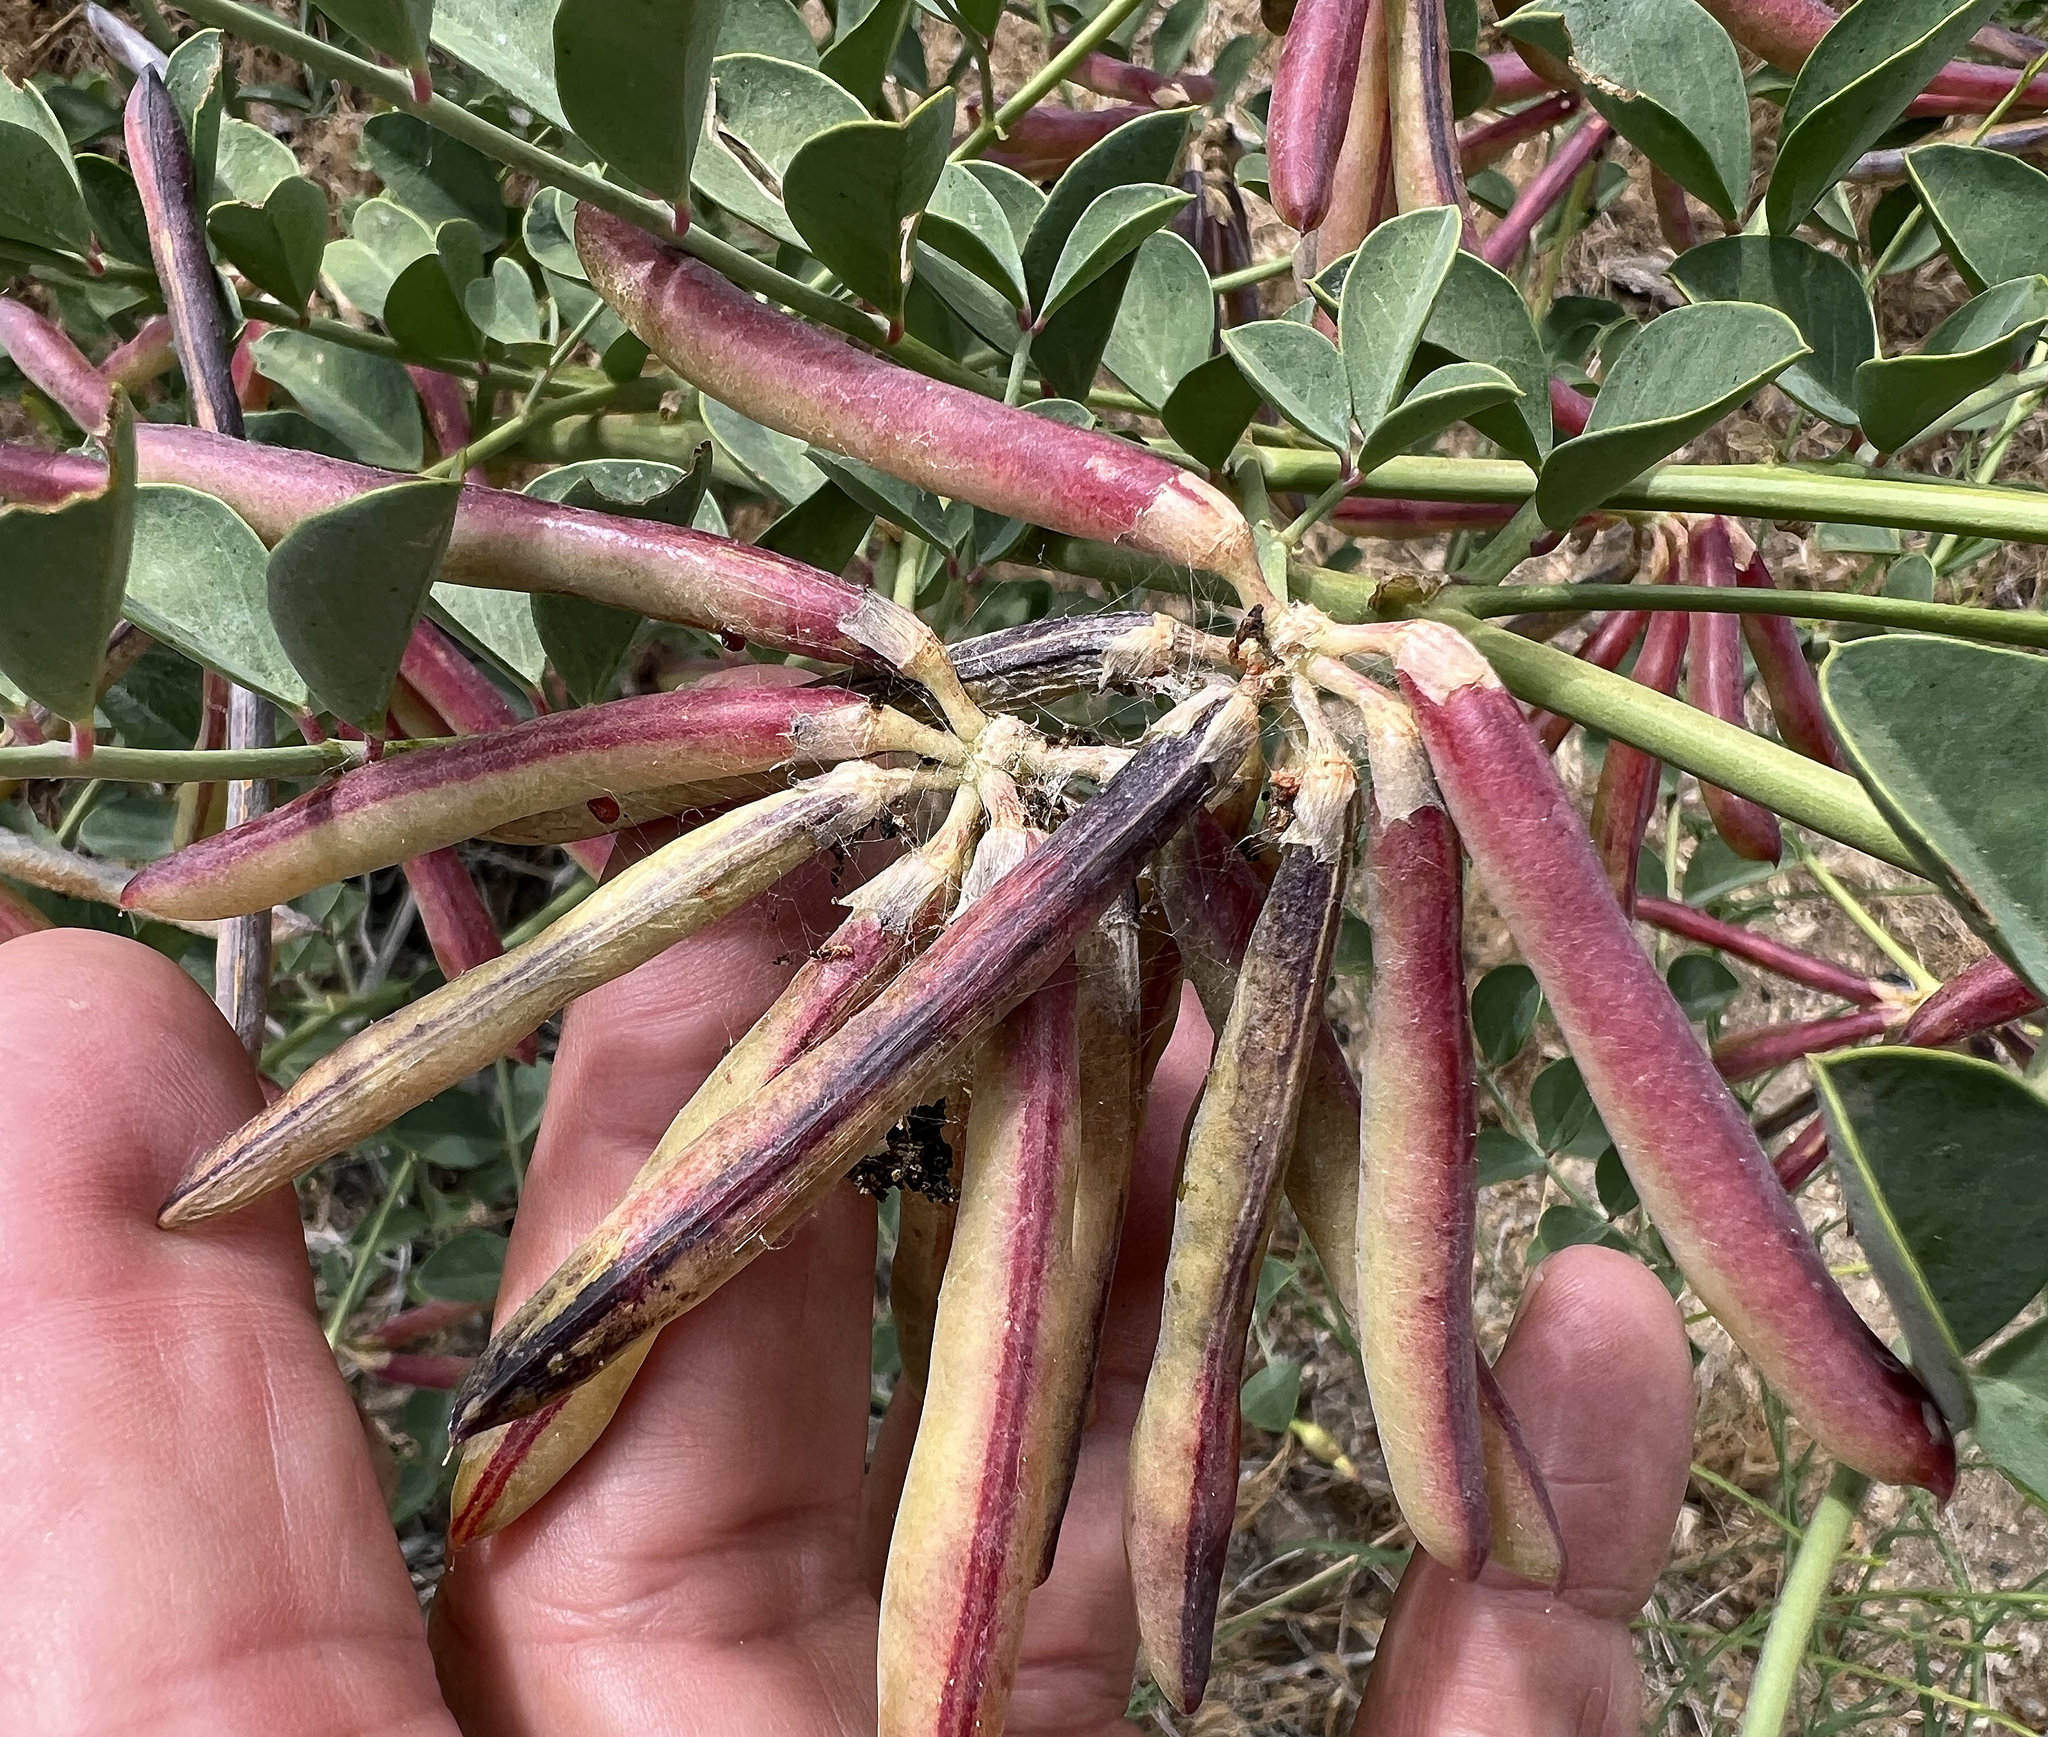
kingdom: Plantae
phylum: Tracheophyta
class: Magnoliopsida
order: Fabales
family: Fabaceae
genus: Hosackia
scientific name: Hosackia crassifolia
